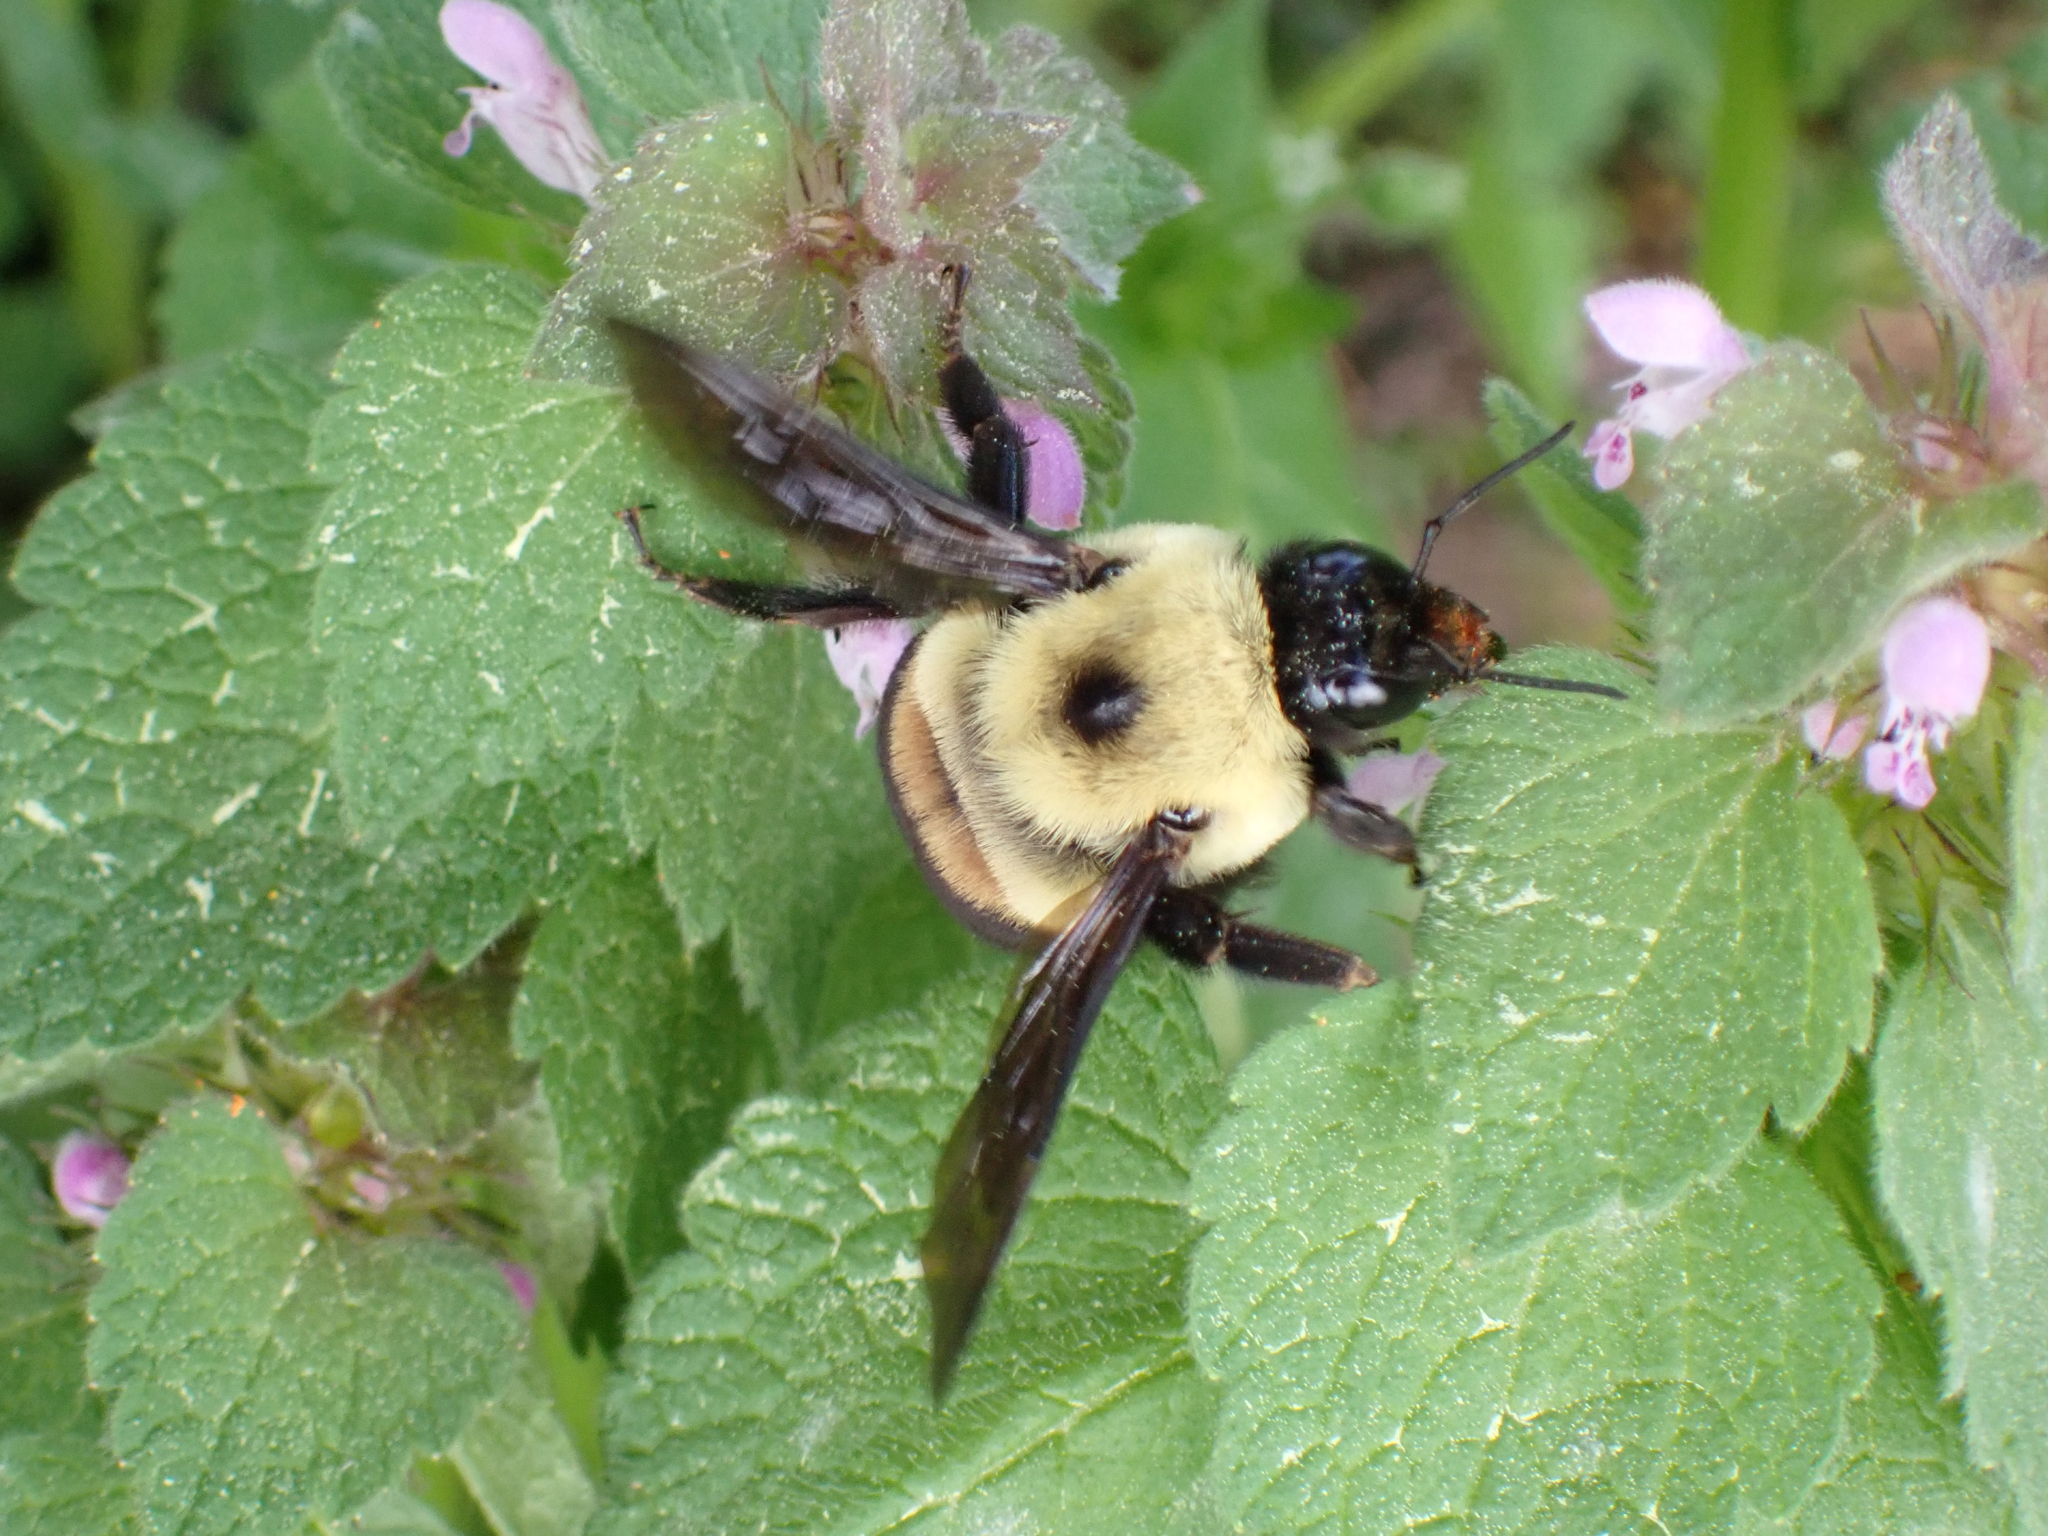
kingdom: Animalia
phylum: Arthropoda
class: Insecta
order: Hymenoptera
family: Apidae
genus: Bombus
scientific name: Bombus griseocollis
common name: Brown-belted bumble bee
